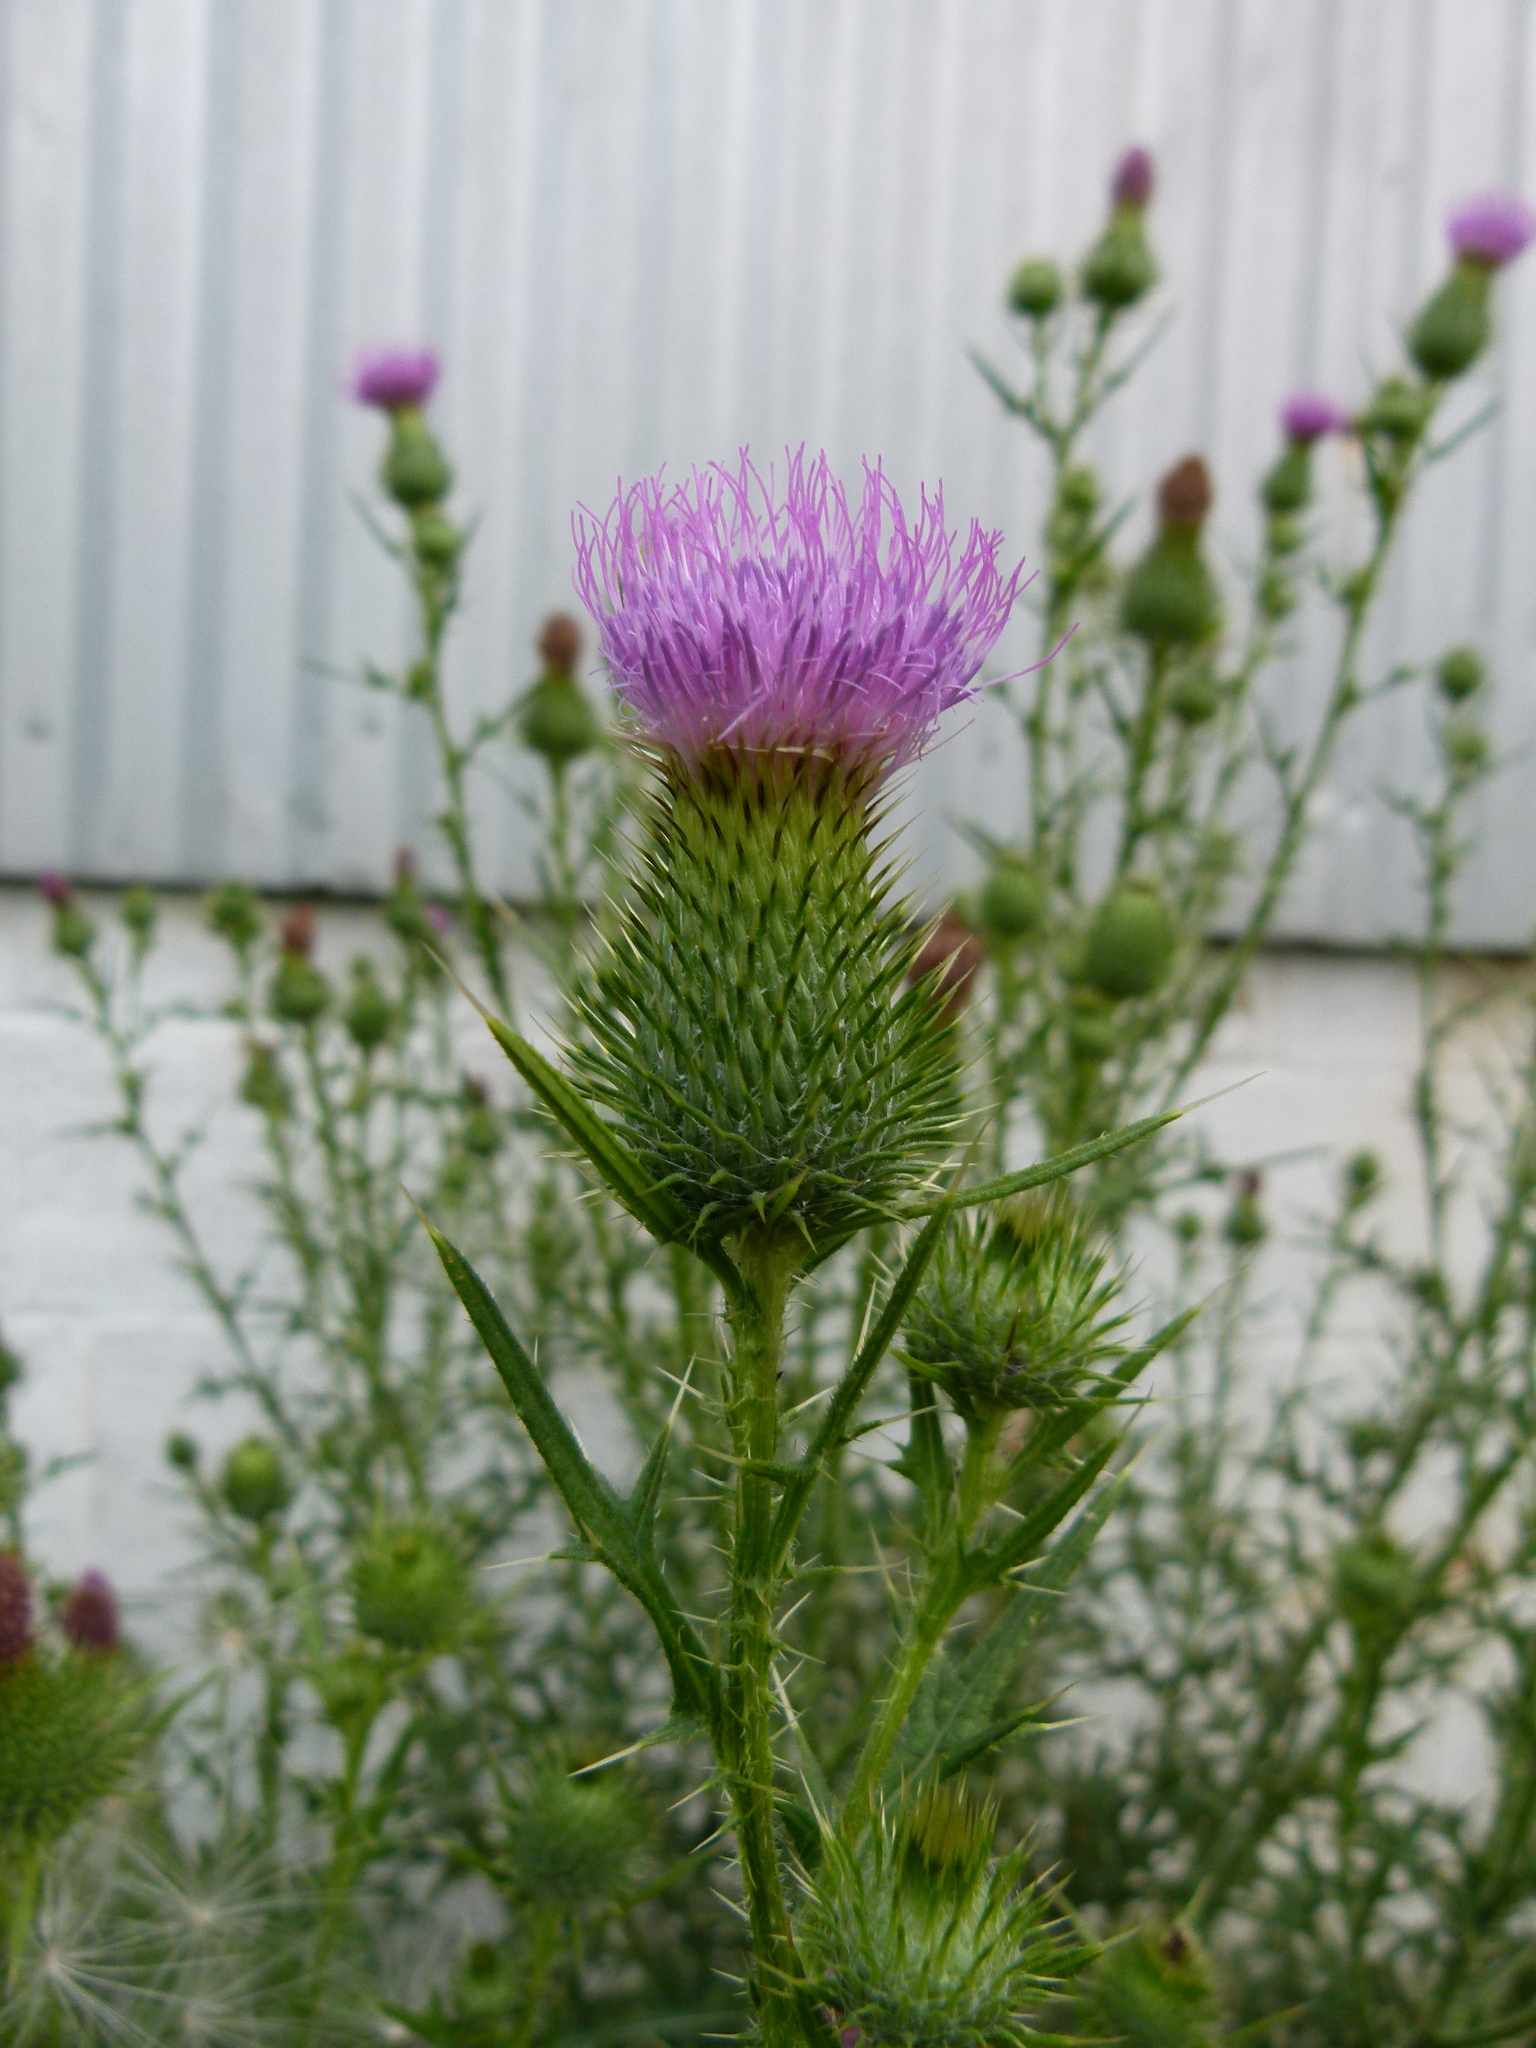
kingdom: Plantae
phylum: Tracheophyta
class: Magnoliopsida
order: Asterales
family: Asteraceae
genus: Cirsium
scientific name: Cirsium vulgare
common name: Bull thistle
